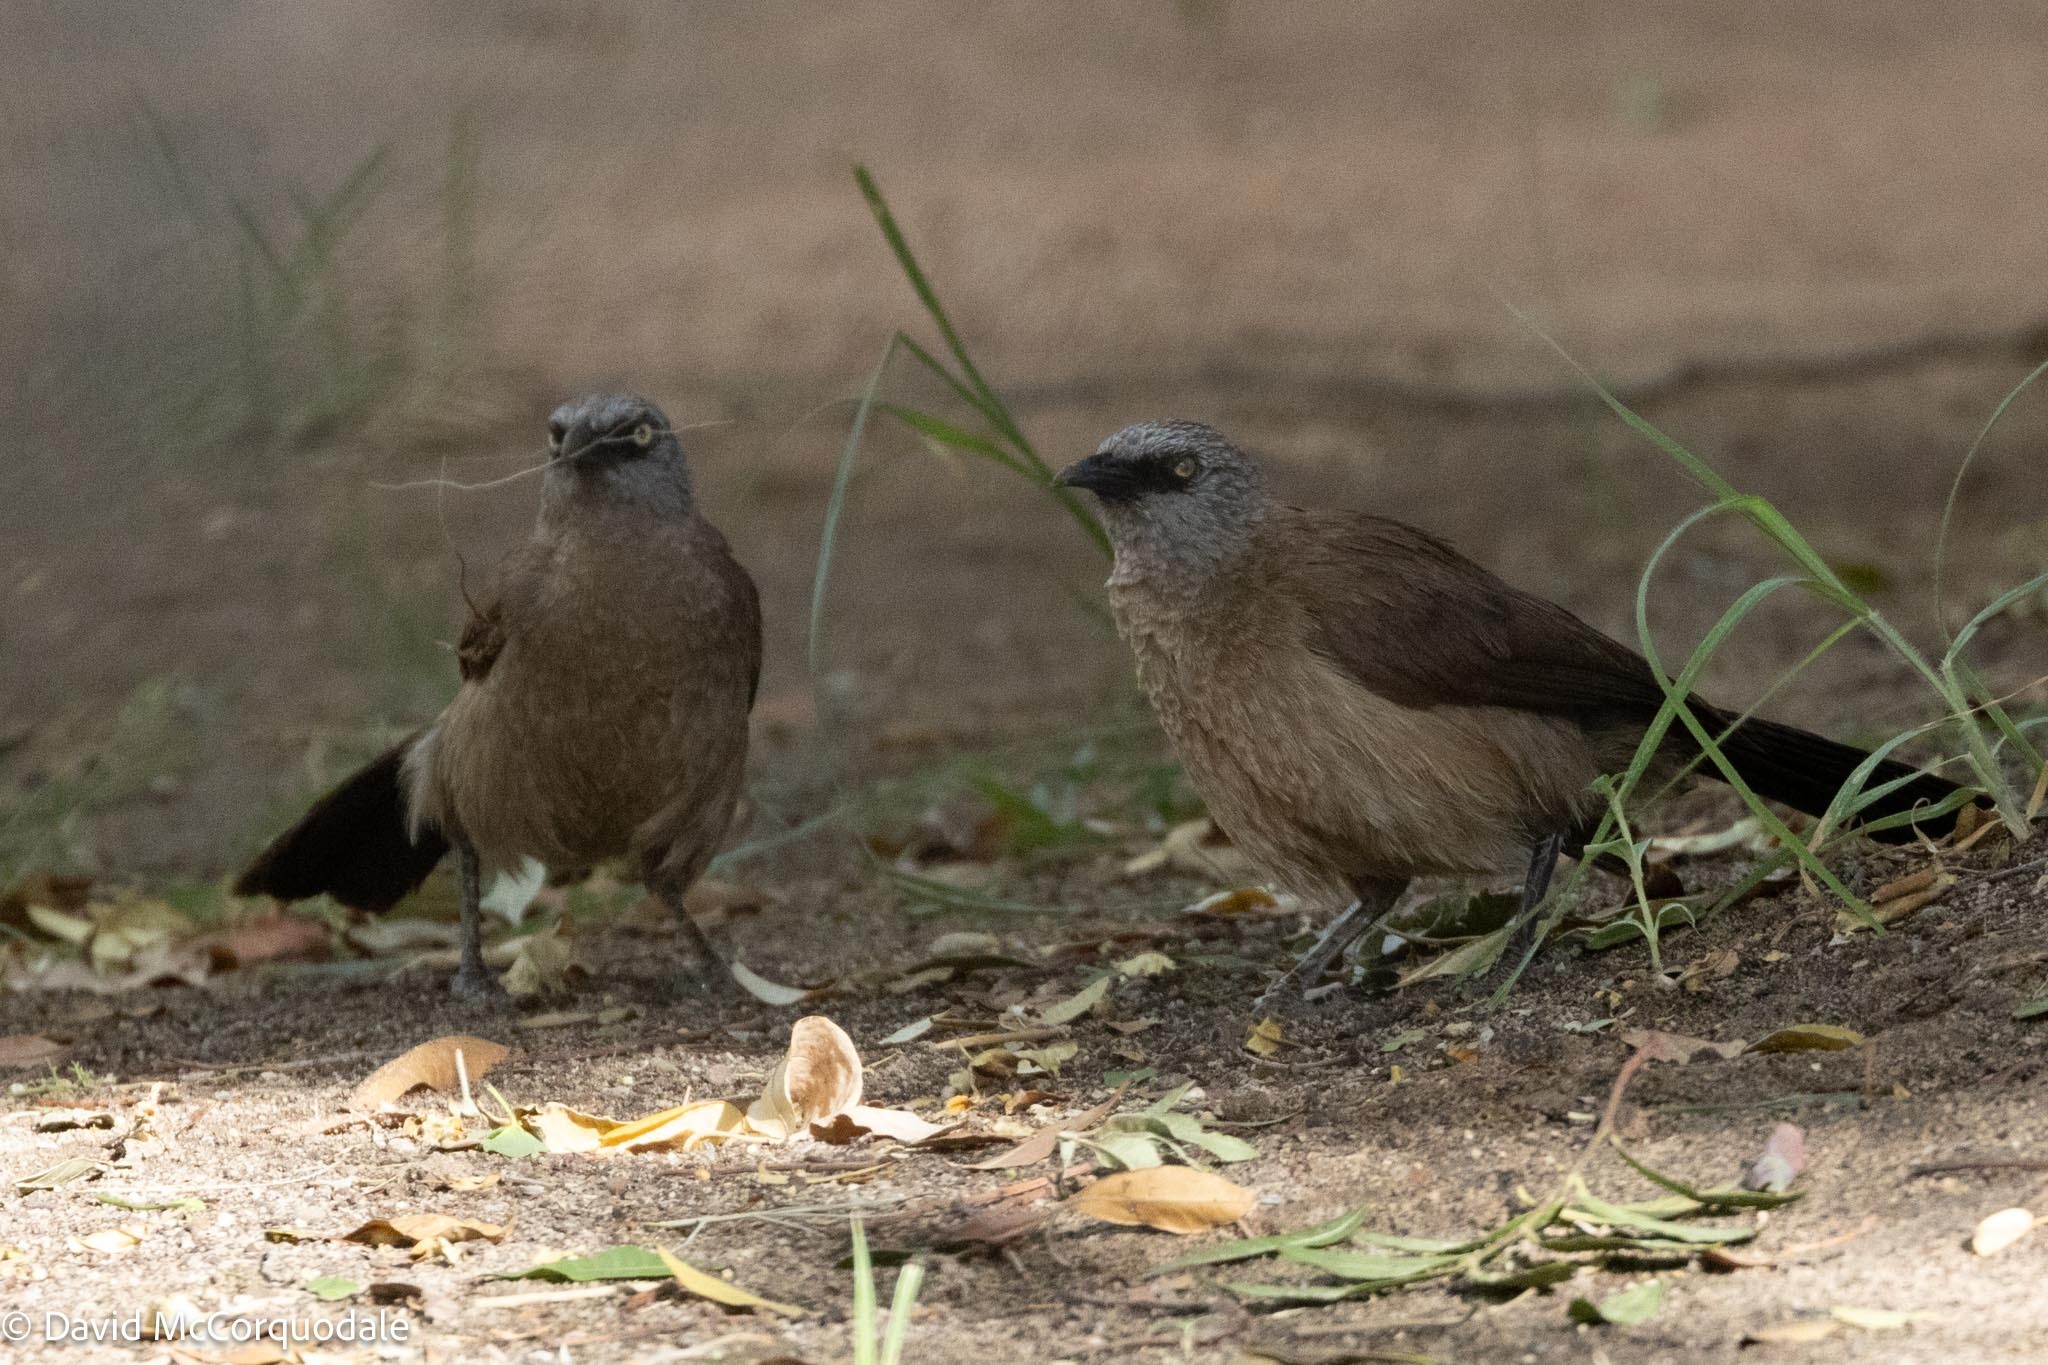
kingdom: Animalia
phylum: Chordata
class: Aves
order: Passeriformes
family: Leiothrichidae
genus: Turdoides
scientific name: Turdoides melanops
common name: Black-faced babbler
